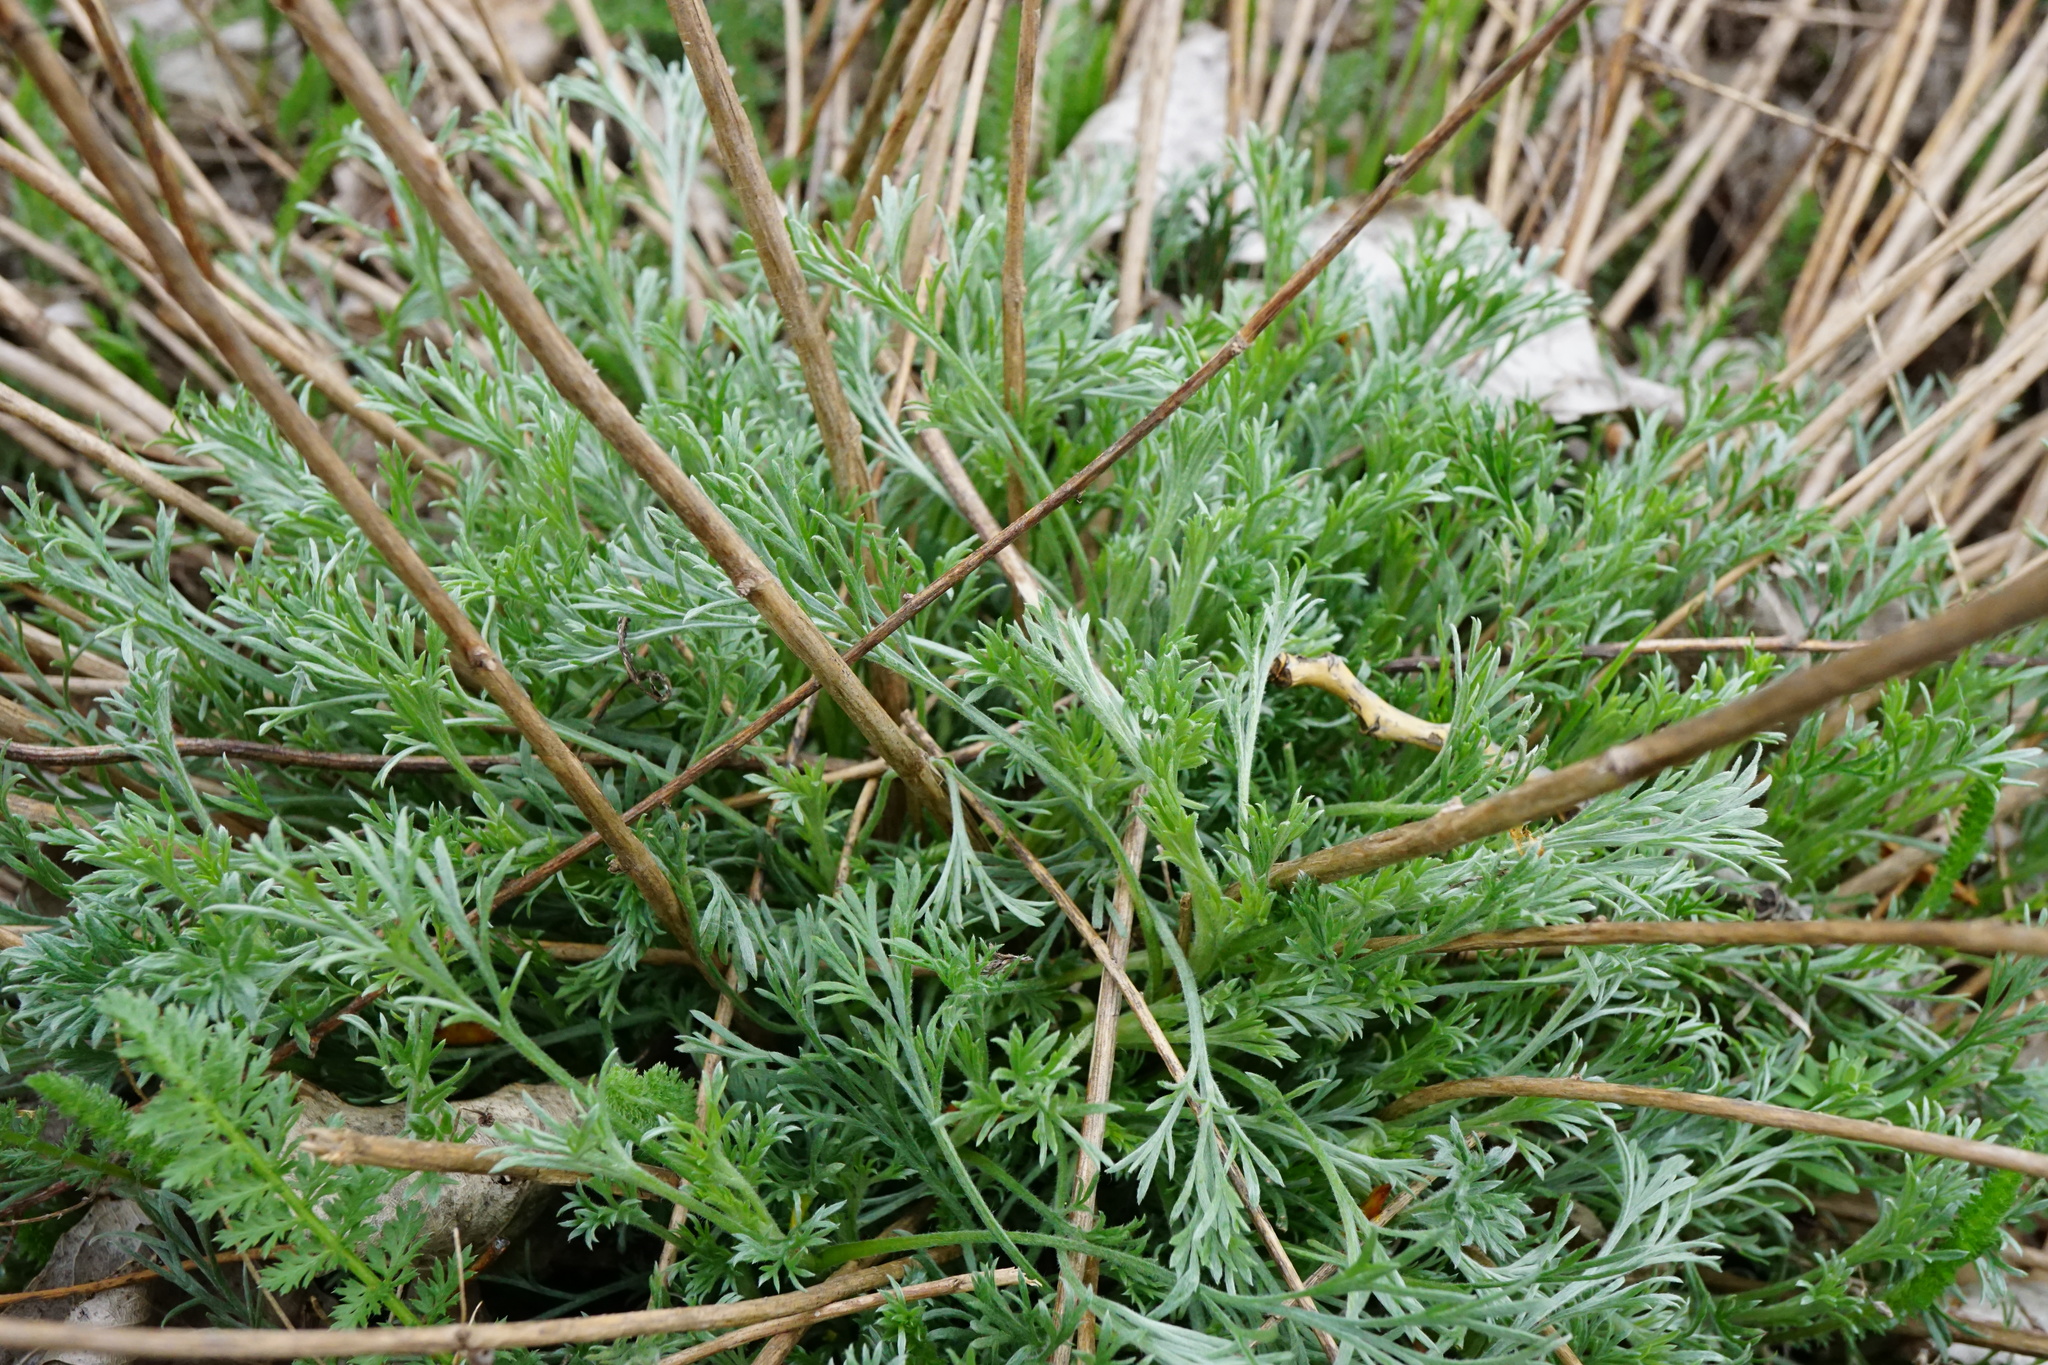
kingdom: Plantae
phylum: Tracheophyta
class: Magnoliopsida
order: Asterales
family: Asteraceae
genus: Artemisia
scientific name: Artemisia campestris
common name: Field wormwood
